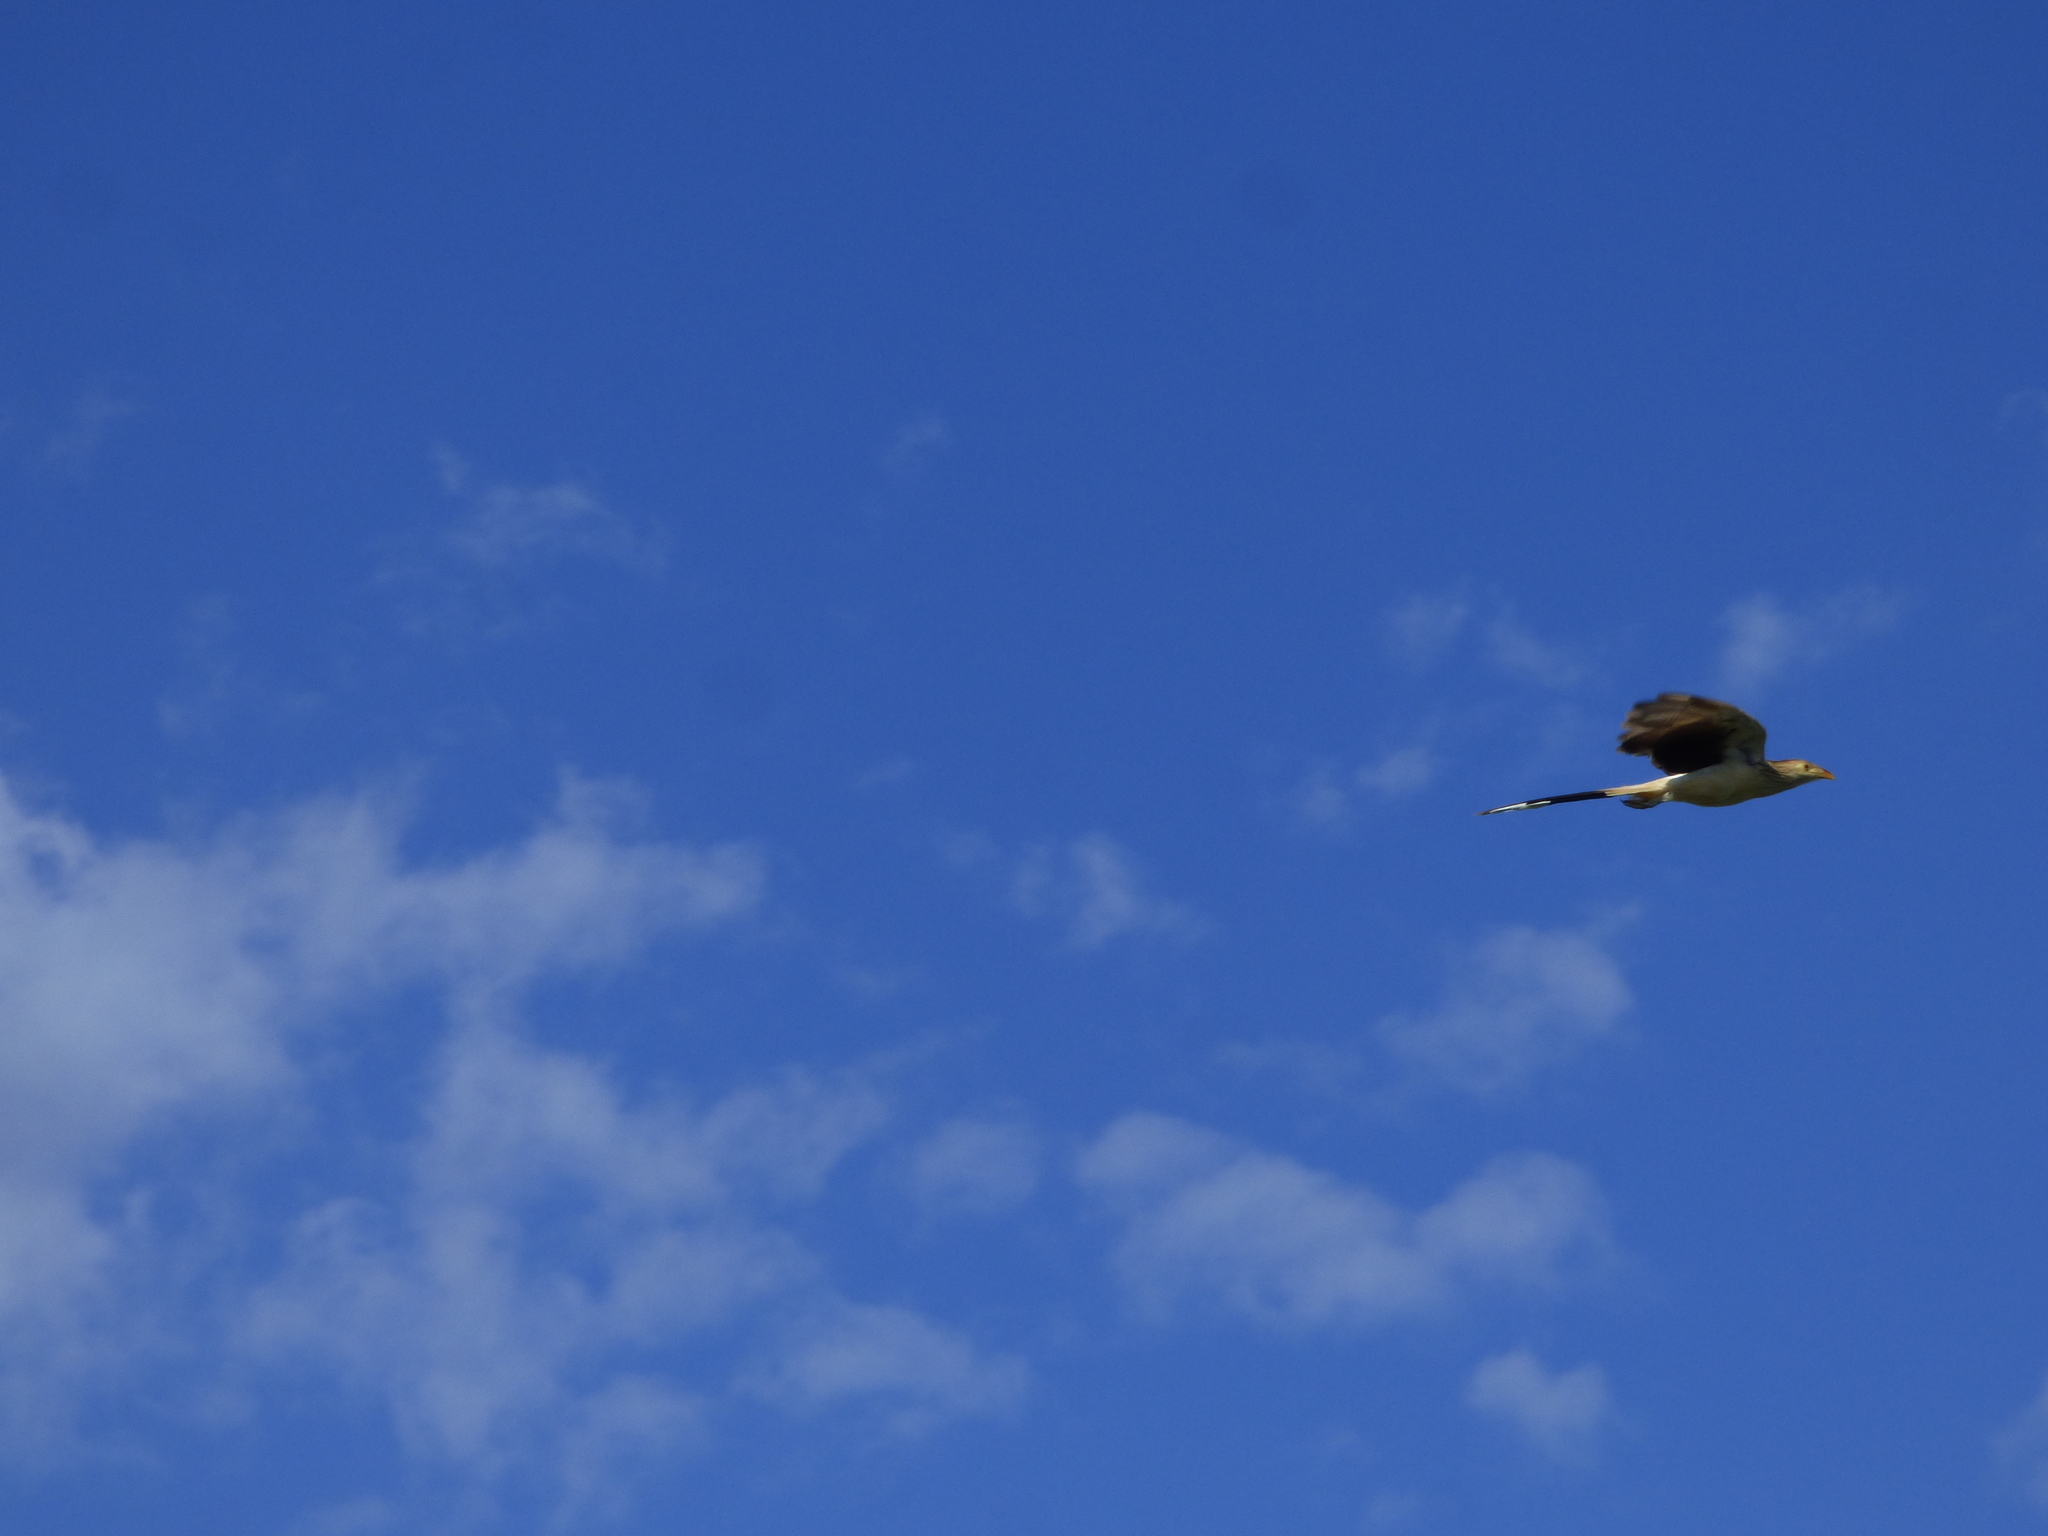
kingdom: Animalia
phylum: Chordata
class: Aves
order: Cuculiformes
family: Cuculidae
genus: Guira
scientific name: Guira guira
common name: Guira cuckoo
